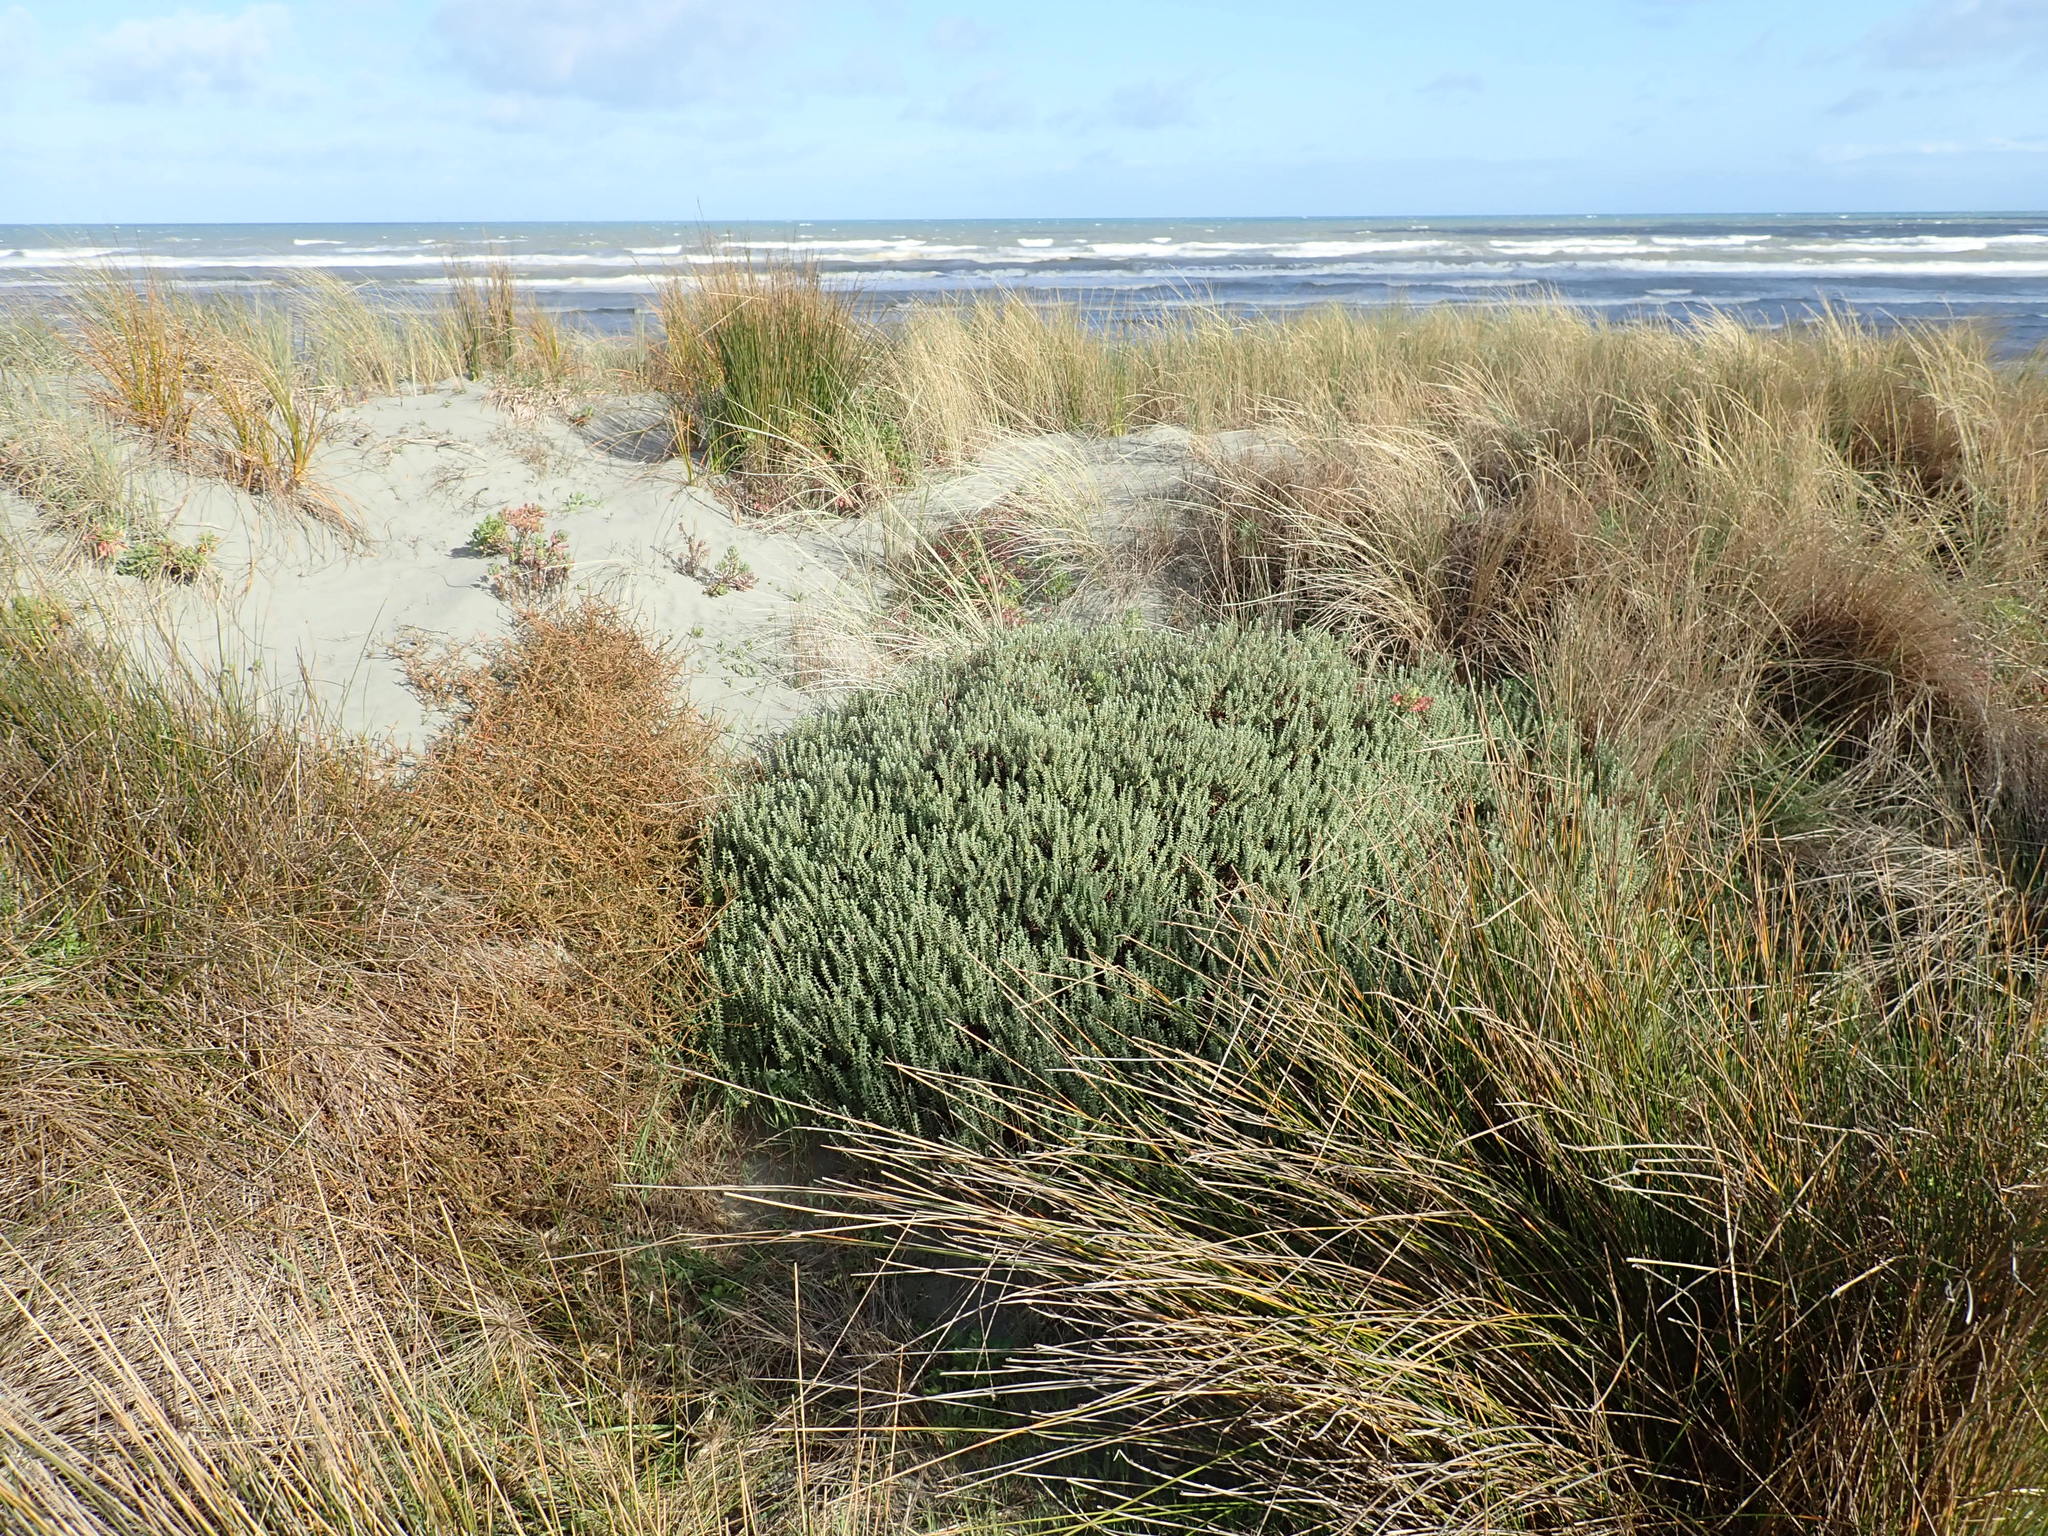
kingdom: Plantae
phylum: Tracheophyta
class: Magnoliopsida
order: Malvales
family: Thymelaeaceae
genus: Pimelea
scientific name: Pimelea villosa
